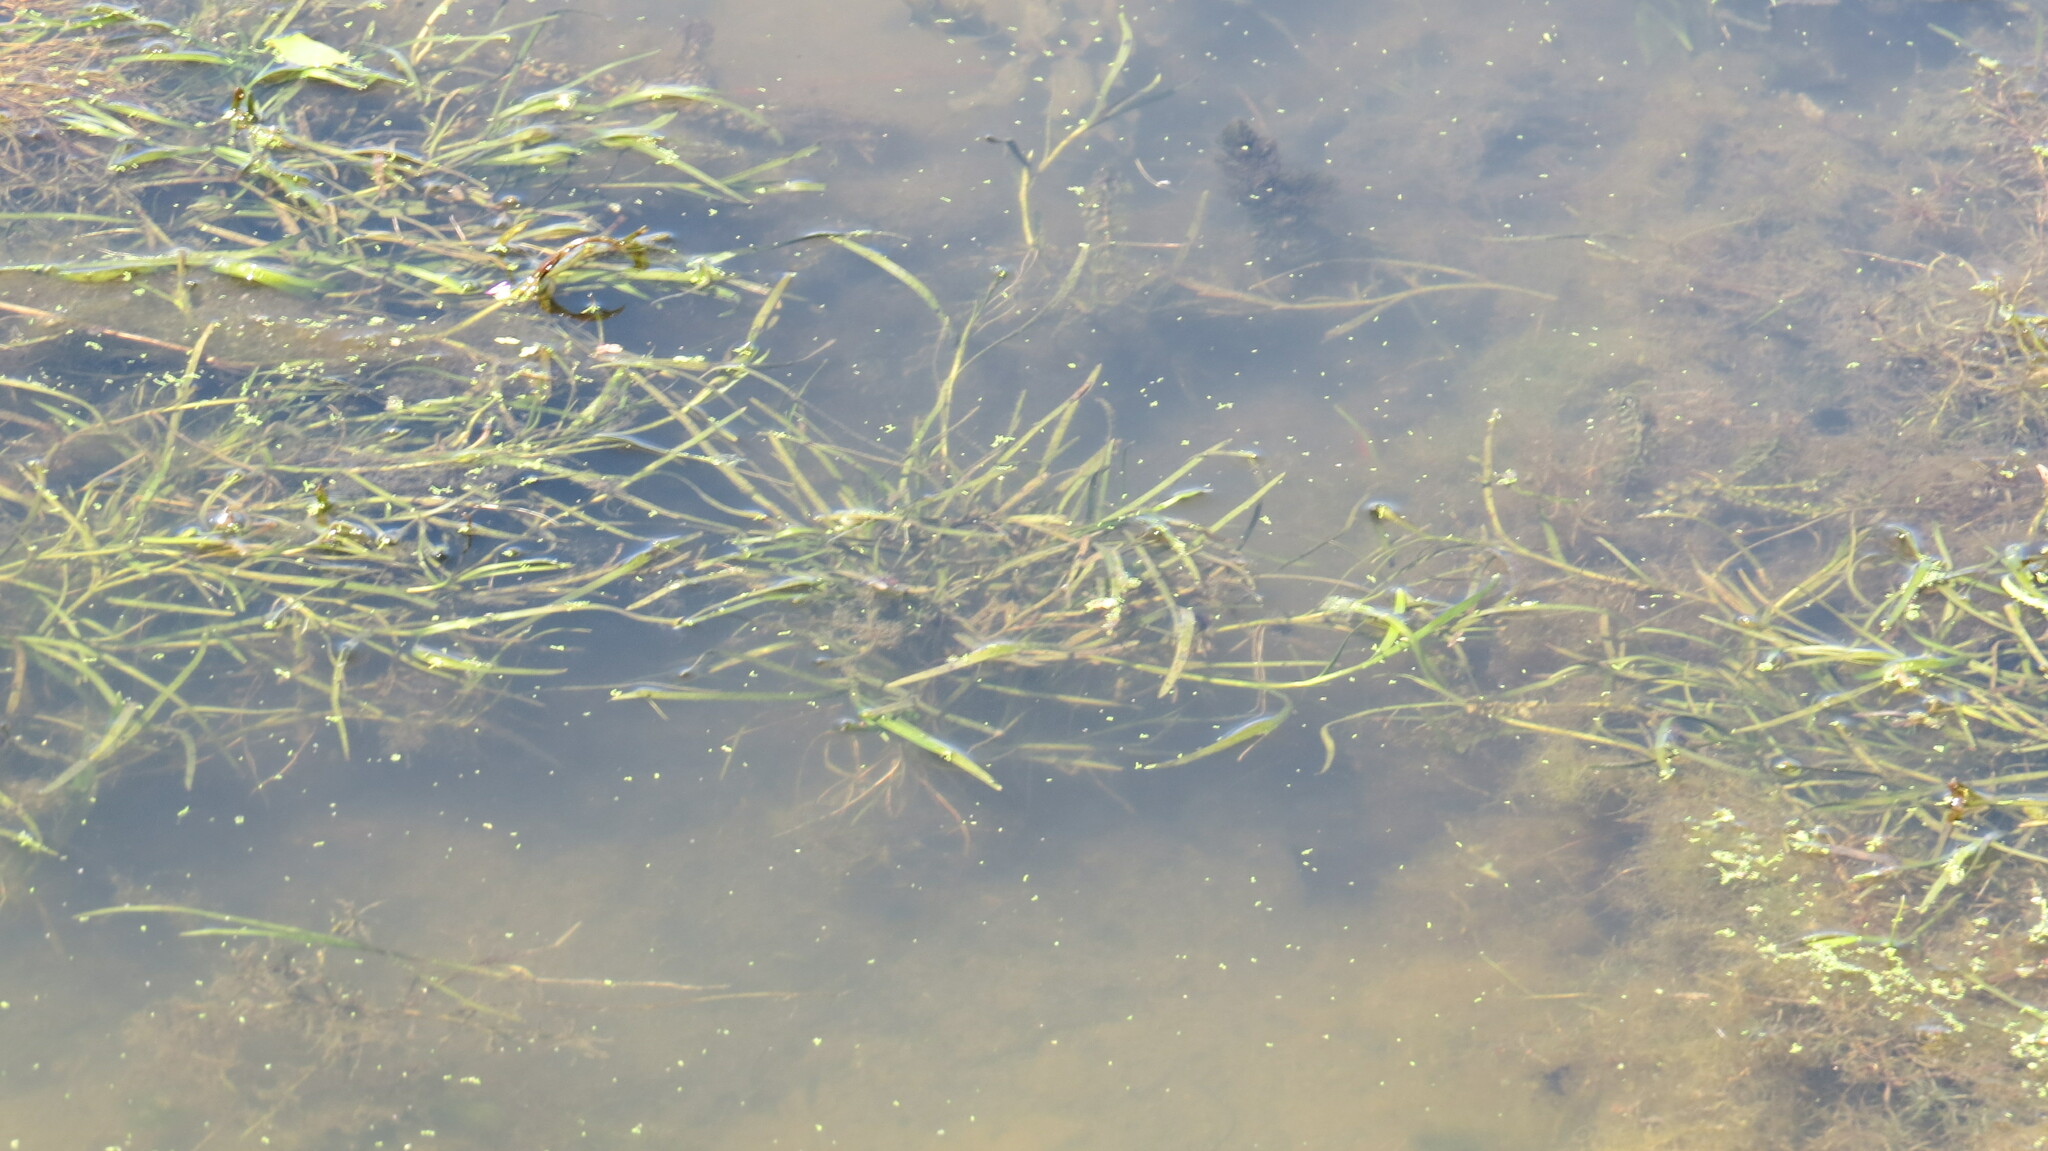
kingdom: Plantae
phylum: Tracheophyta
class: Liliopsida
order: Commelinales
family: Pontederiaceae
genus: Heteranthera
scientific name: Heteranthera dubia
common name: Grass-leaved mud plantain
